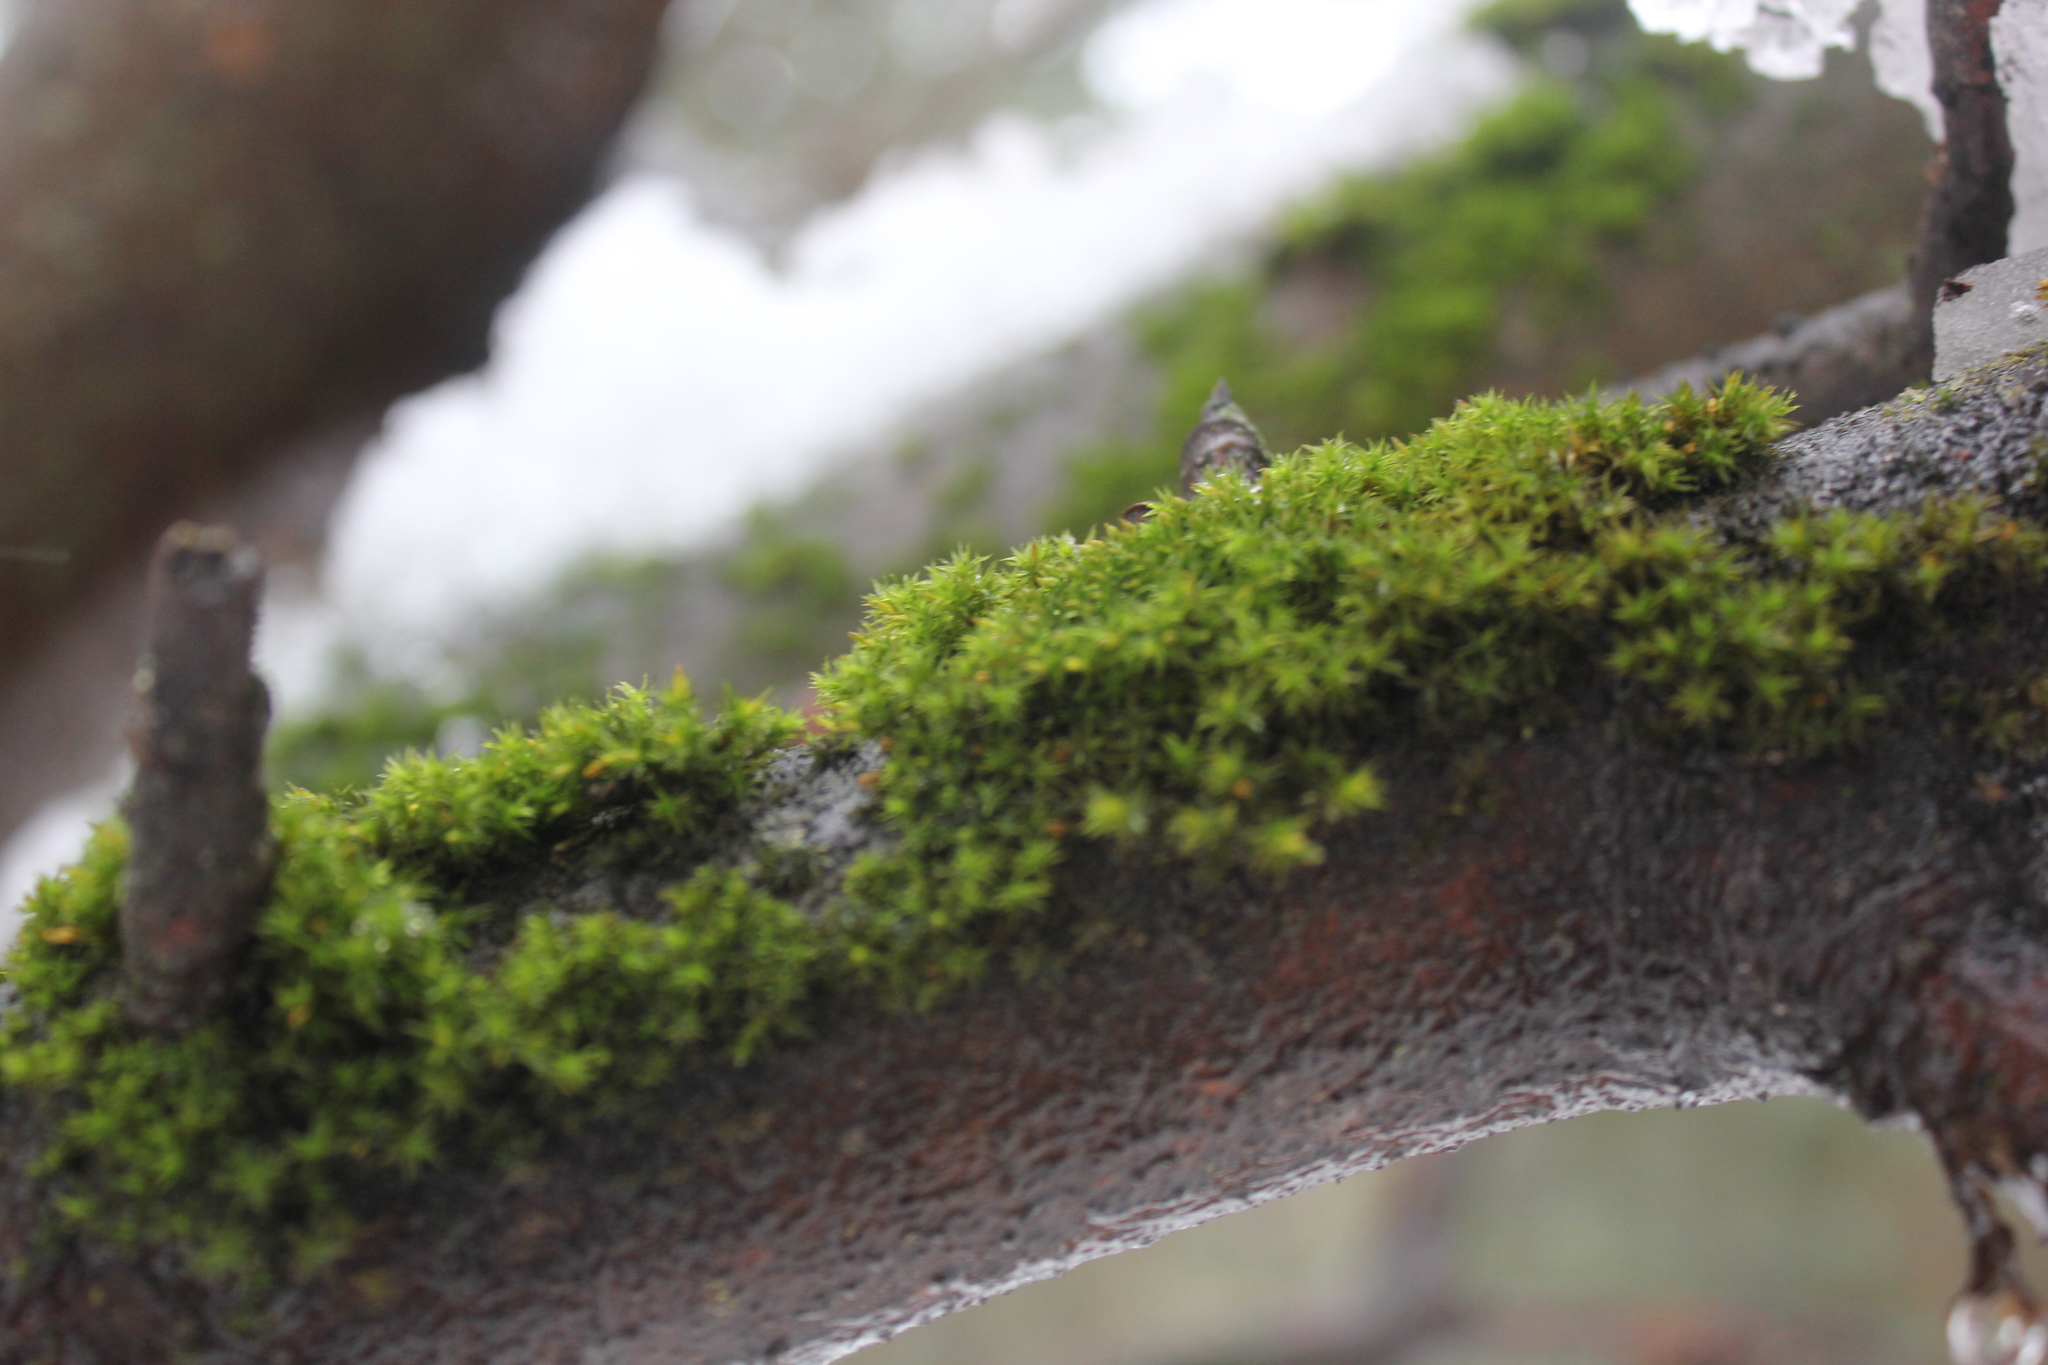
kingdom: Plantae
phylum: Bryophyta
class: Bryopsida
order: Orthotrichales
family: Orthotrichaceae
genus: Lewinskya
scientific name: Lewinskya elegans
